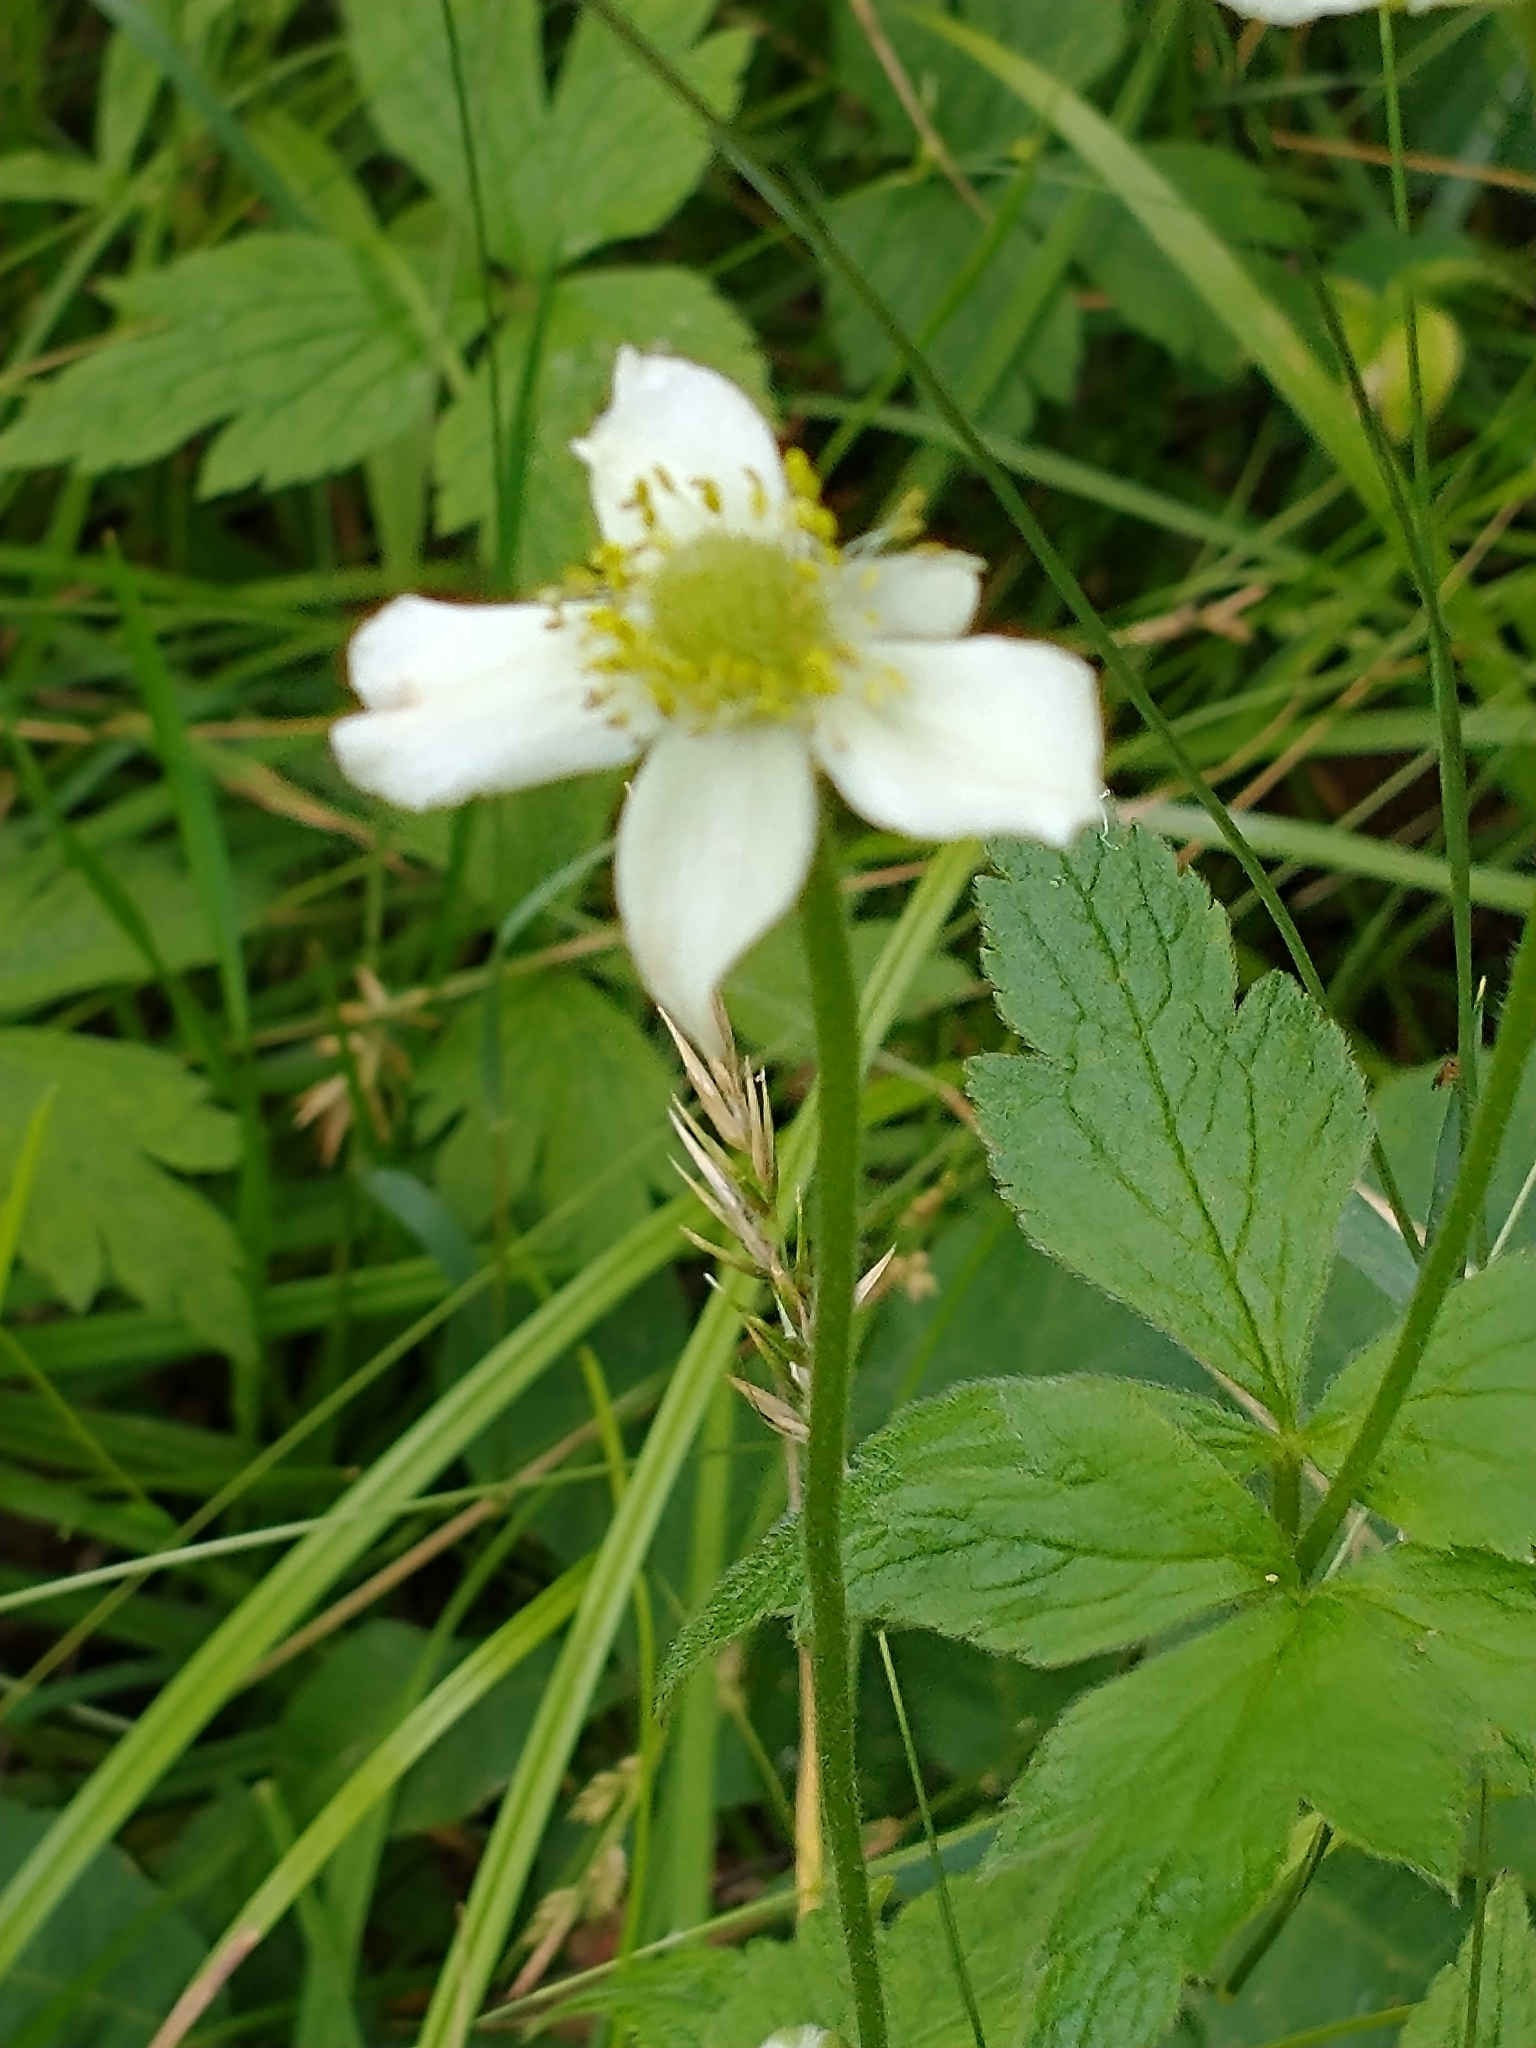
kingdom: Plantae
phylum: Tracheophyta
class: Magnoliopsida
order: Ranunculales
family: Ranunculaceae
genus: Anemone
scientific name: Anemone virginiana
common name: Tall anemone
